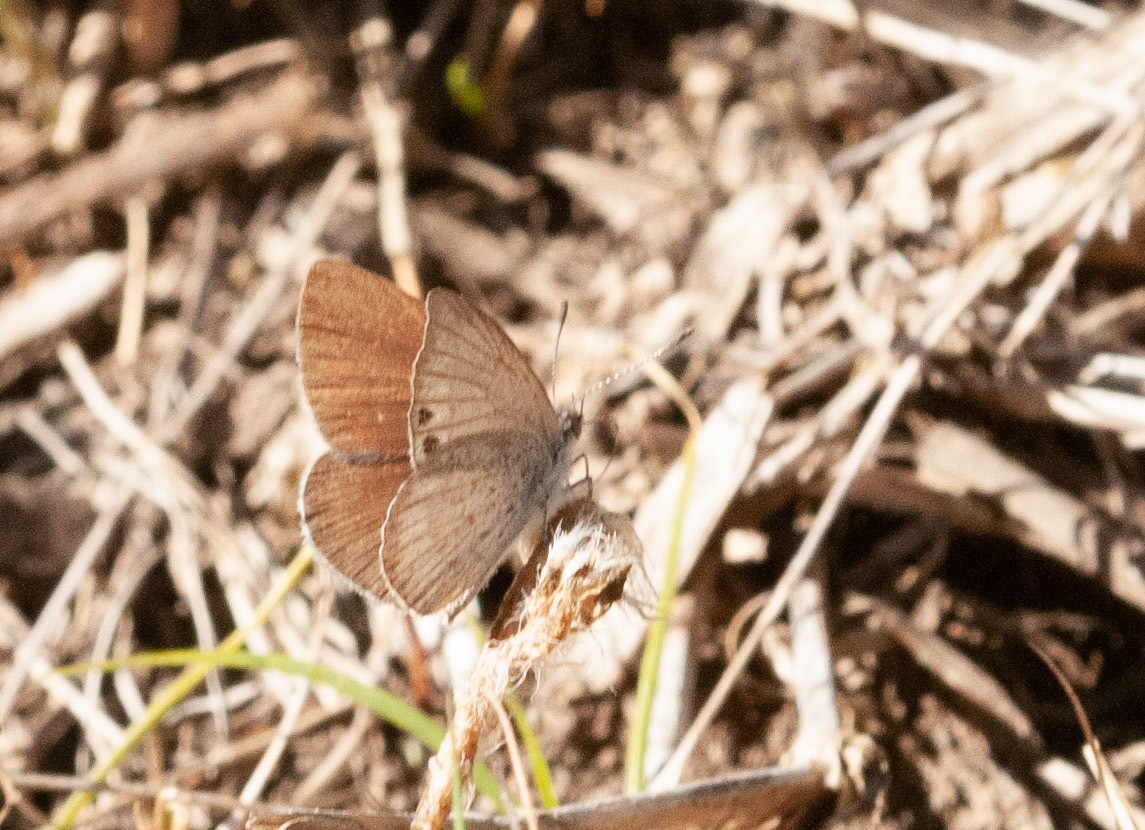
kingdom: Animalia
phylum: Arthropoda
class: Insecta
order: Lepidoptera
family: Lycaenidae
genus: Candalides
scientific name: Candalides
